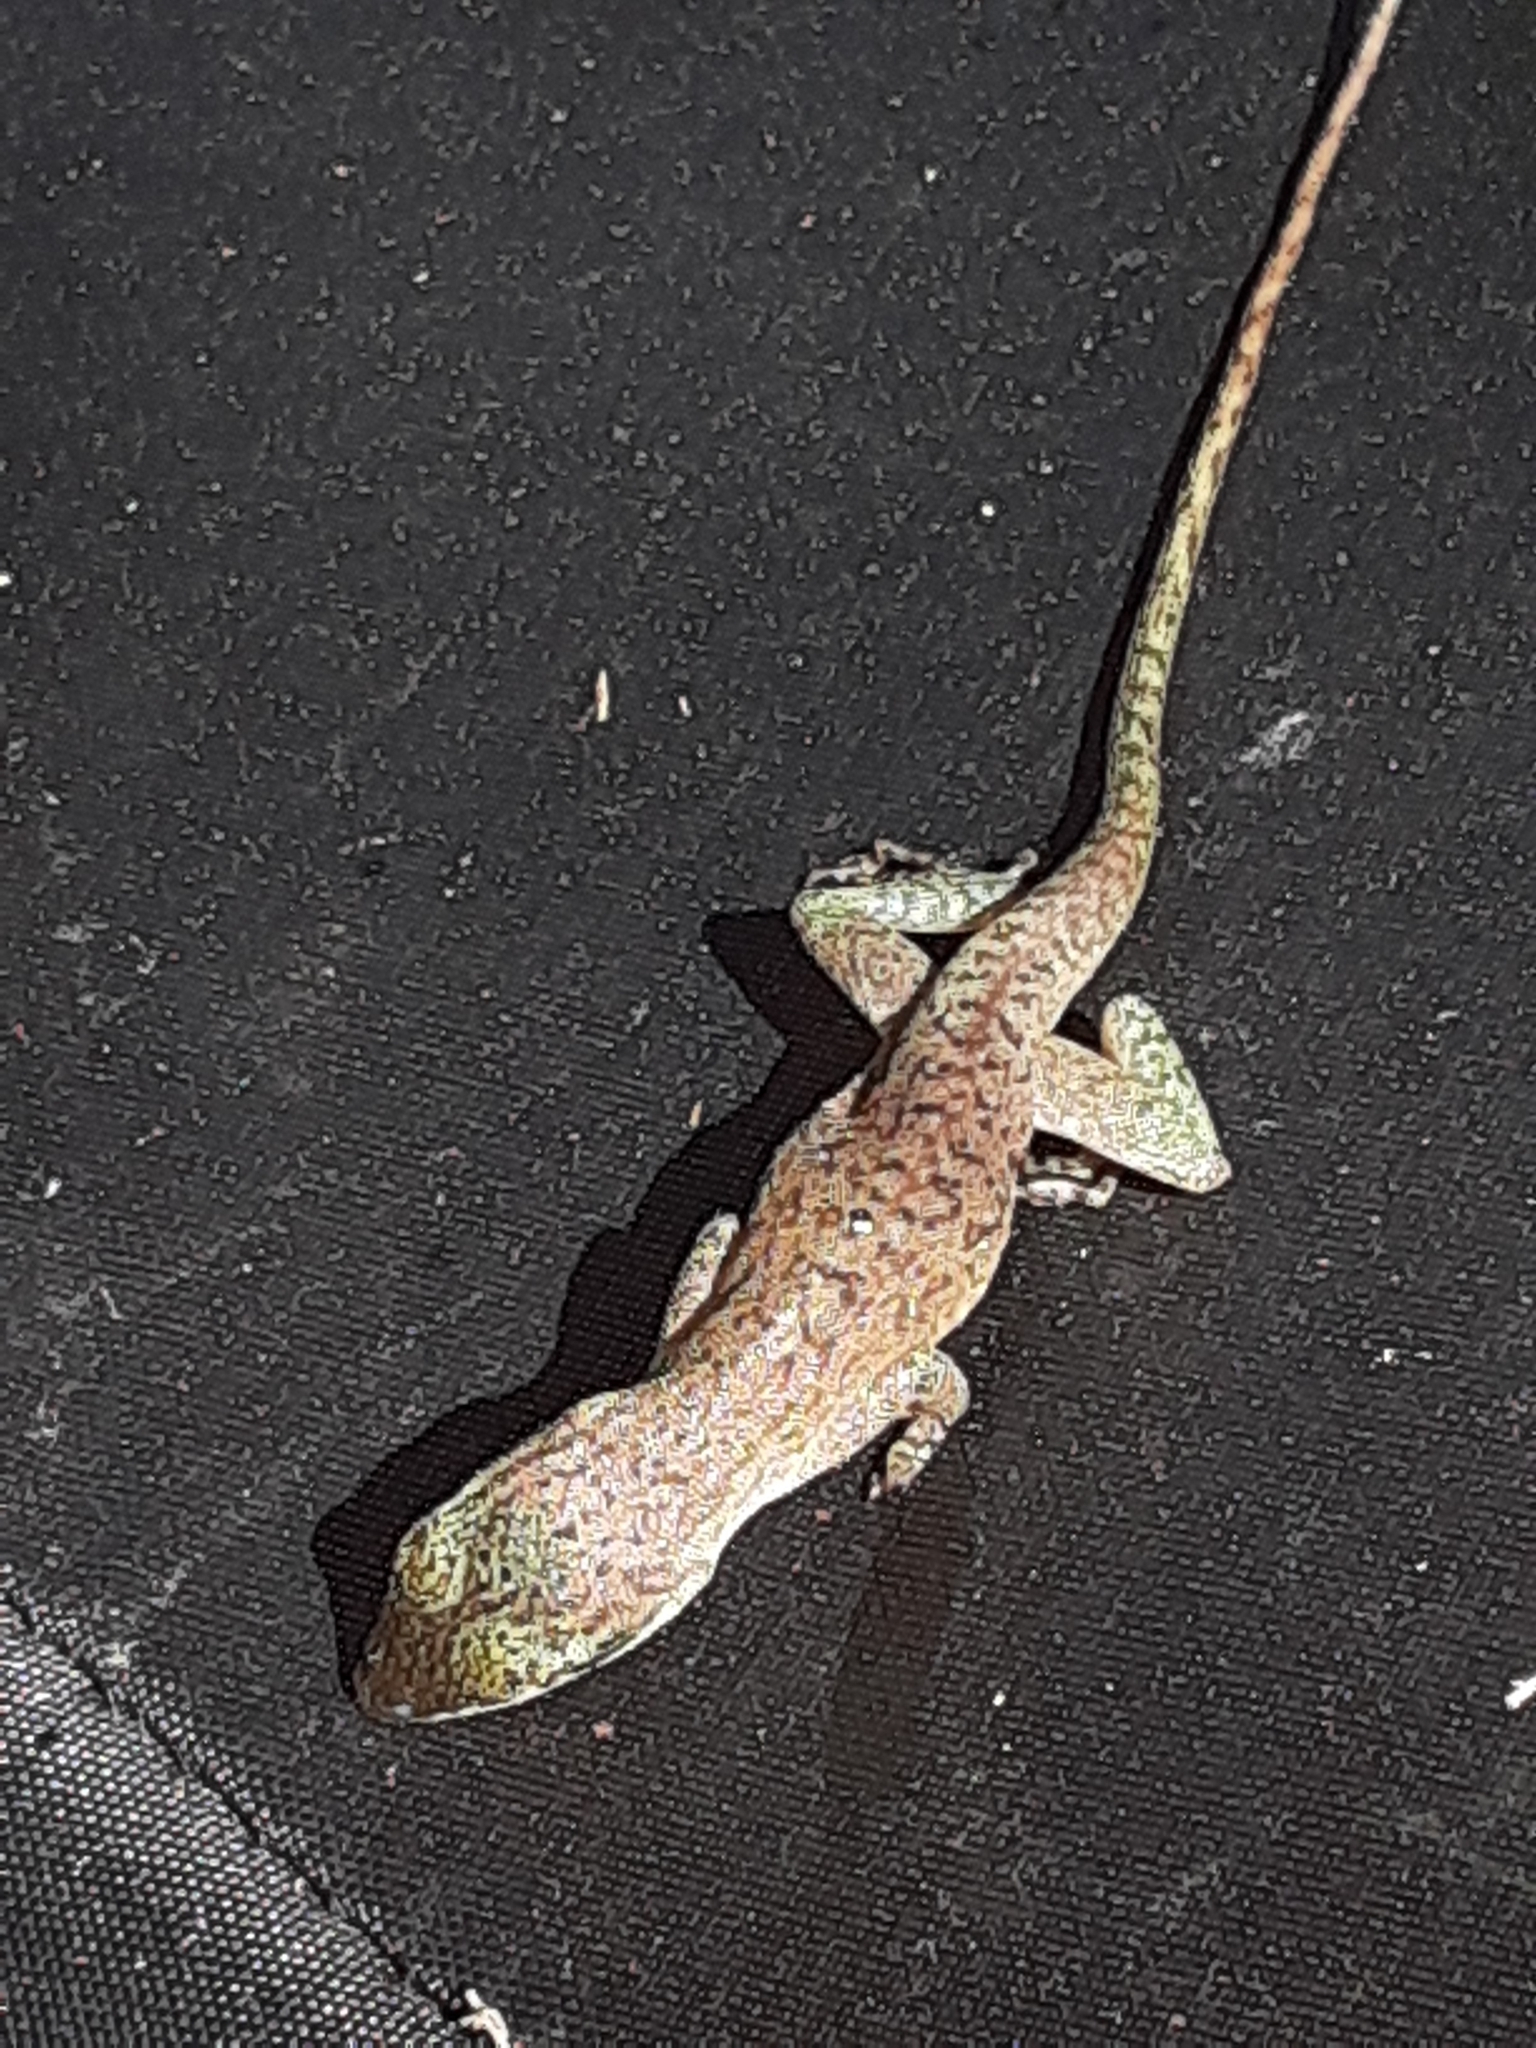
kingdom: Animalia
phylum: Chordata
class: Squamata
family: Dactyloidae
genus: Anolis
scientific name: Anolis carolinensis
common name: Green anole
